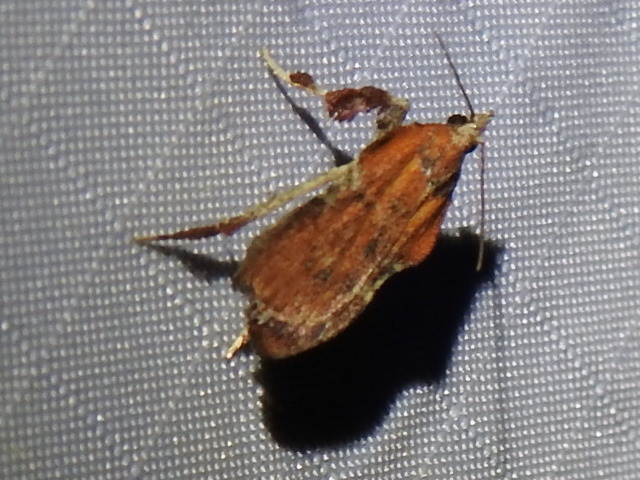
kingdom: Animalia
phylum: Arthropoda
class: Insecta
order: Lepidoptera
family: Pyralidae
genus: Galasa
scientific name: Galasa nigripunctalis
